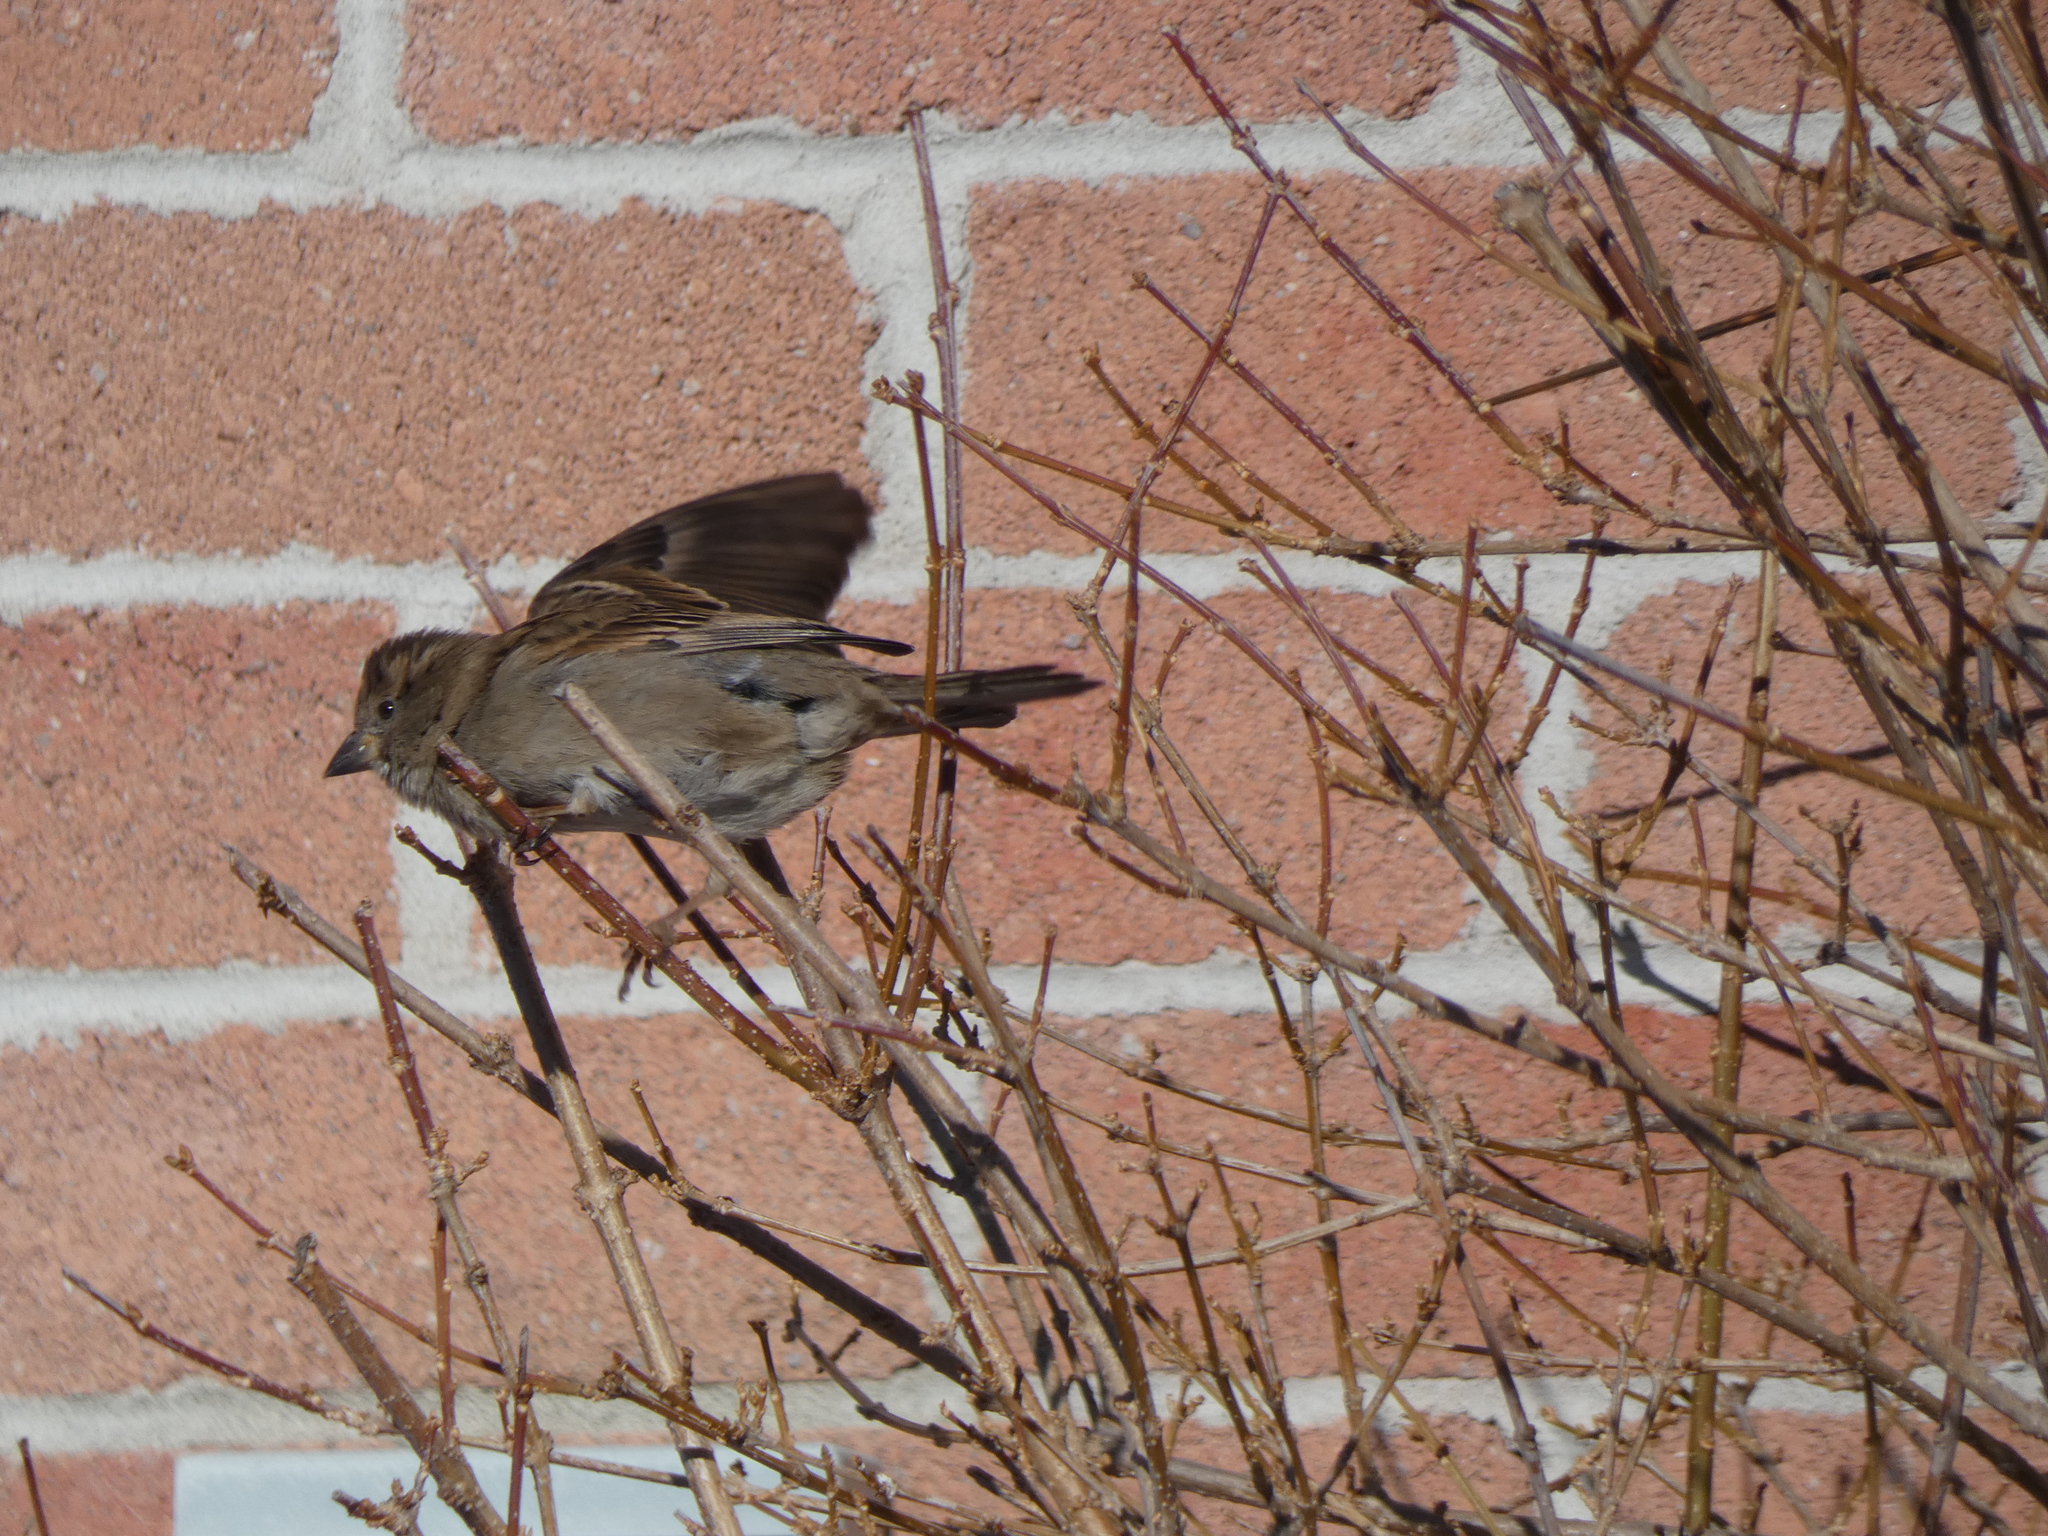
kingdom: Animalia
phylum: Chordata
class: Aves
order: Passeriformes
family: Passeridae
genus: Passer
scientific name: Passer domesticus
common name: House sparrow
